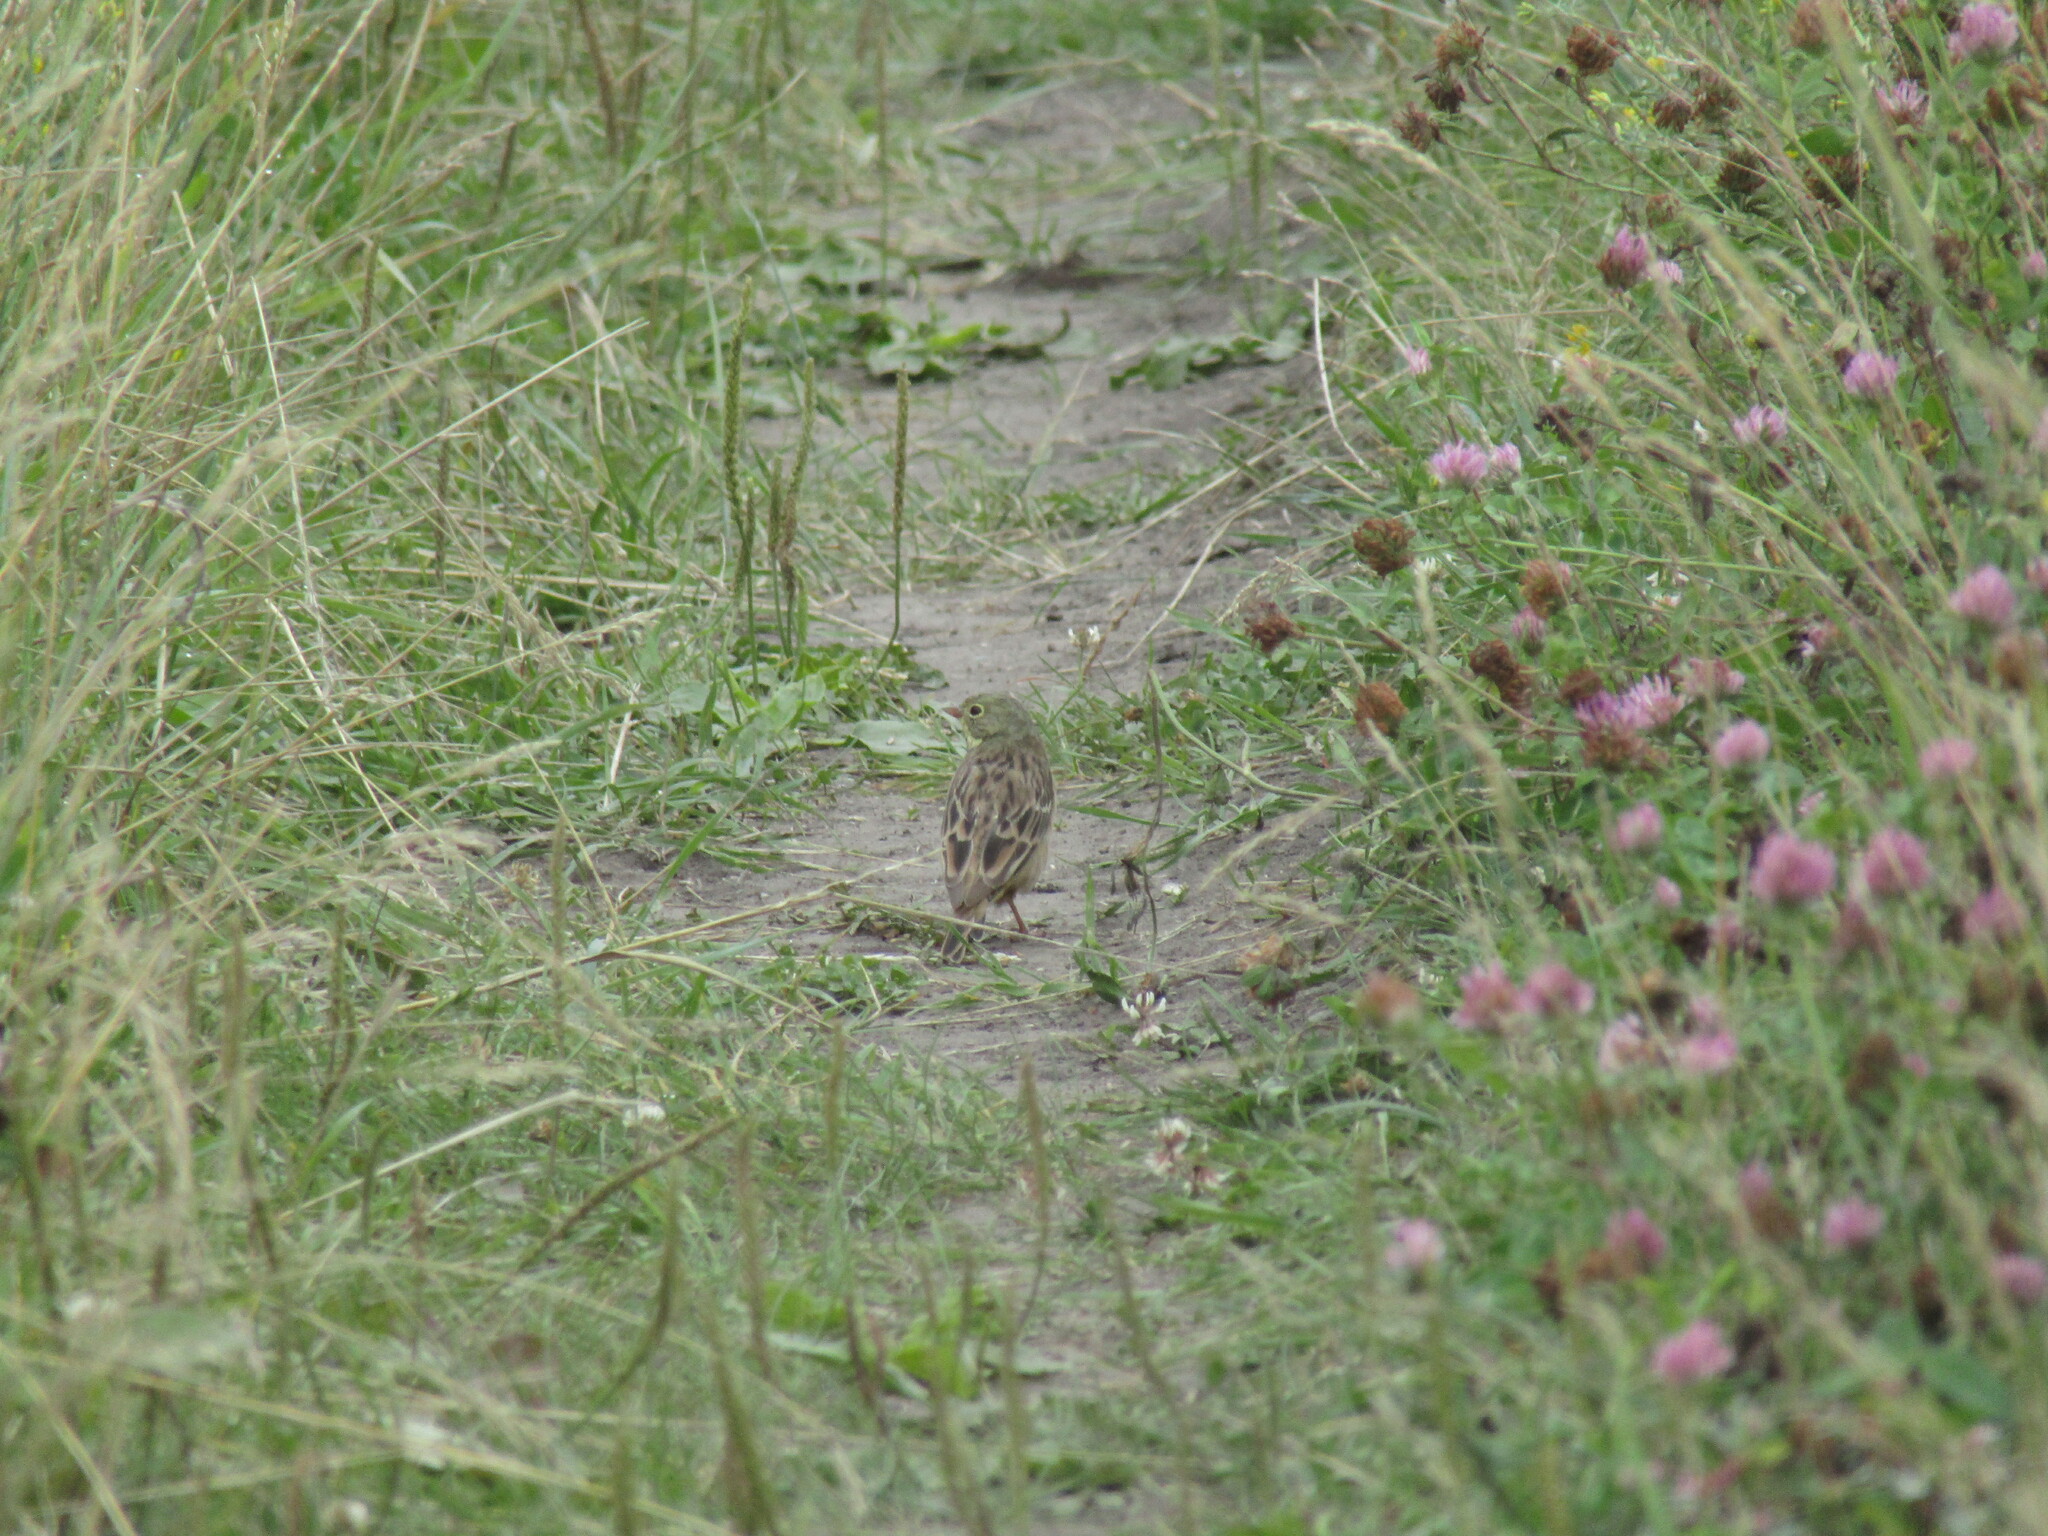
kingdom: Animalia
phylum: Chordata
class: Aves
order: Passeriformes
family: Emberizidae
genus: Emberiza
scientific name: Emberiza hortulana
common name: Ortolan bunting
